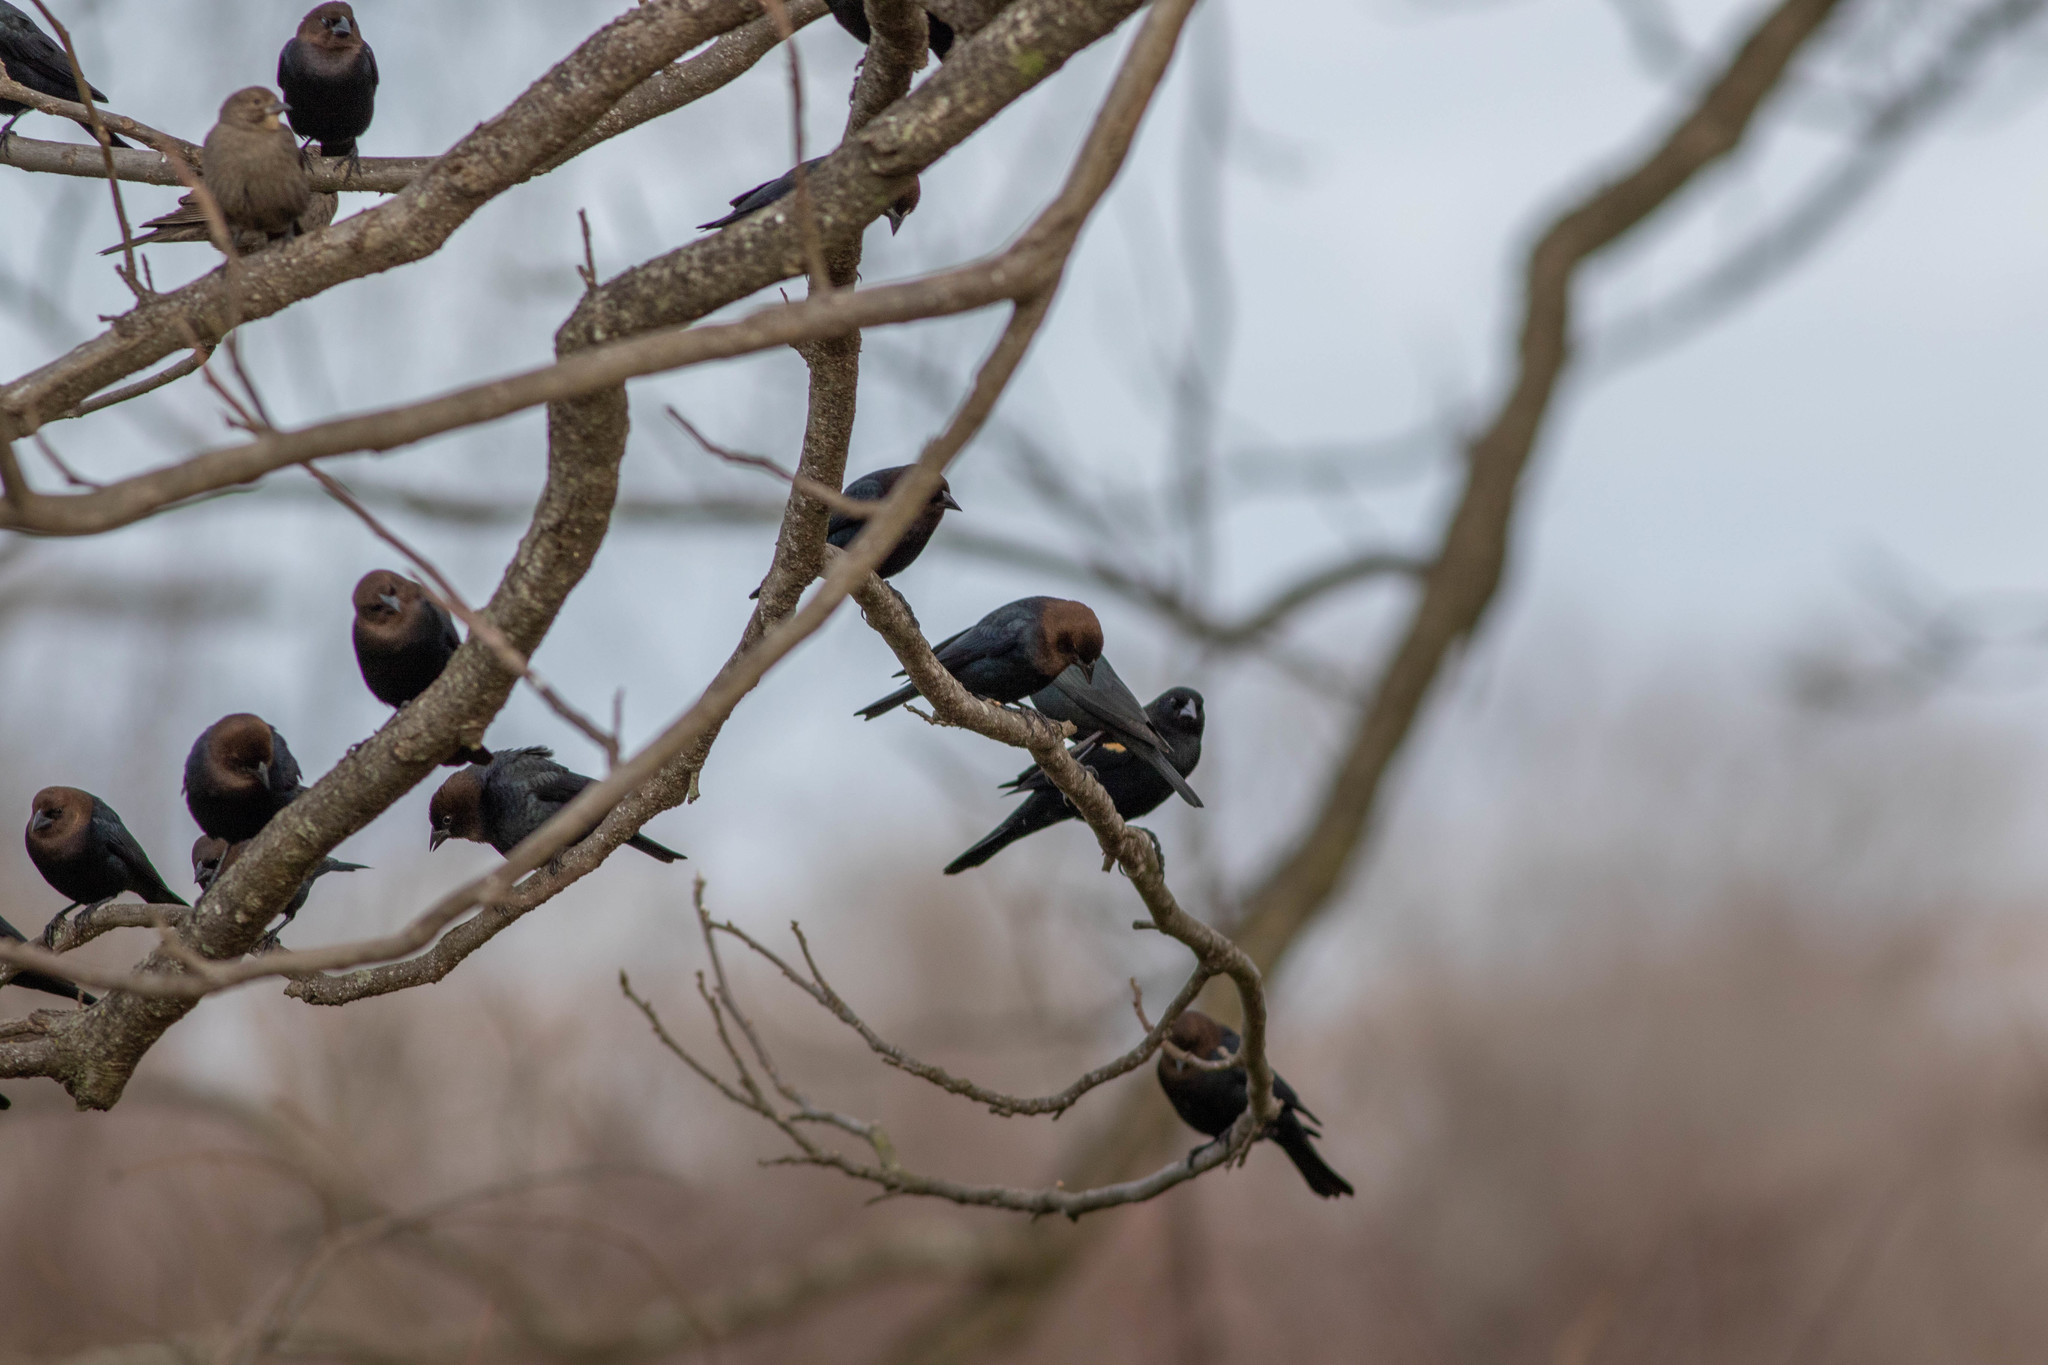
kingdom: Animalia
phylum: Chordata
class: Aves
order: Passeriformes
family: Icteridae
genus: Molothrus
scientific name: Molothrus ater
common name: Brown-headed cowbird
